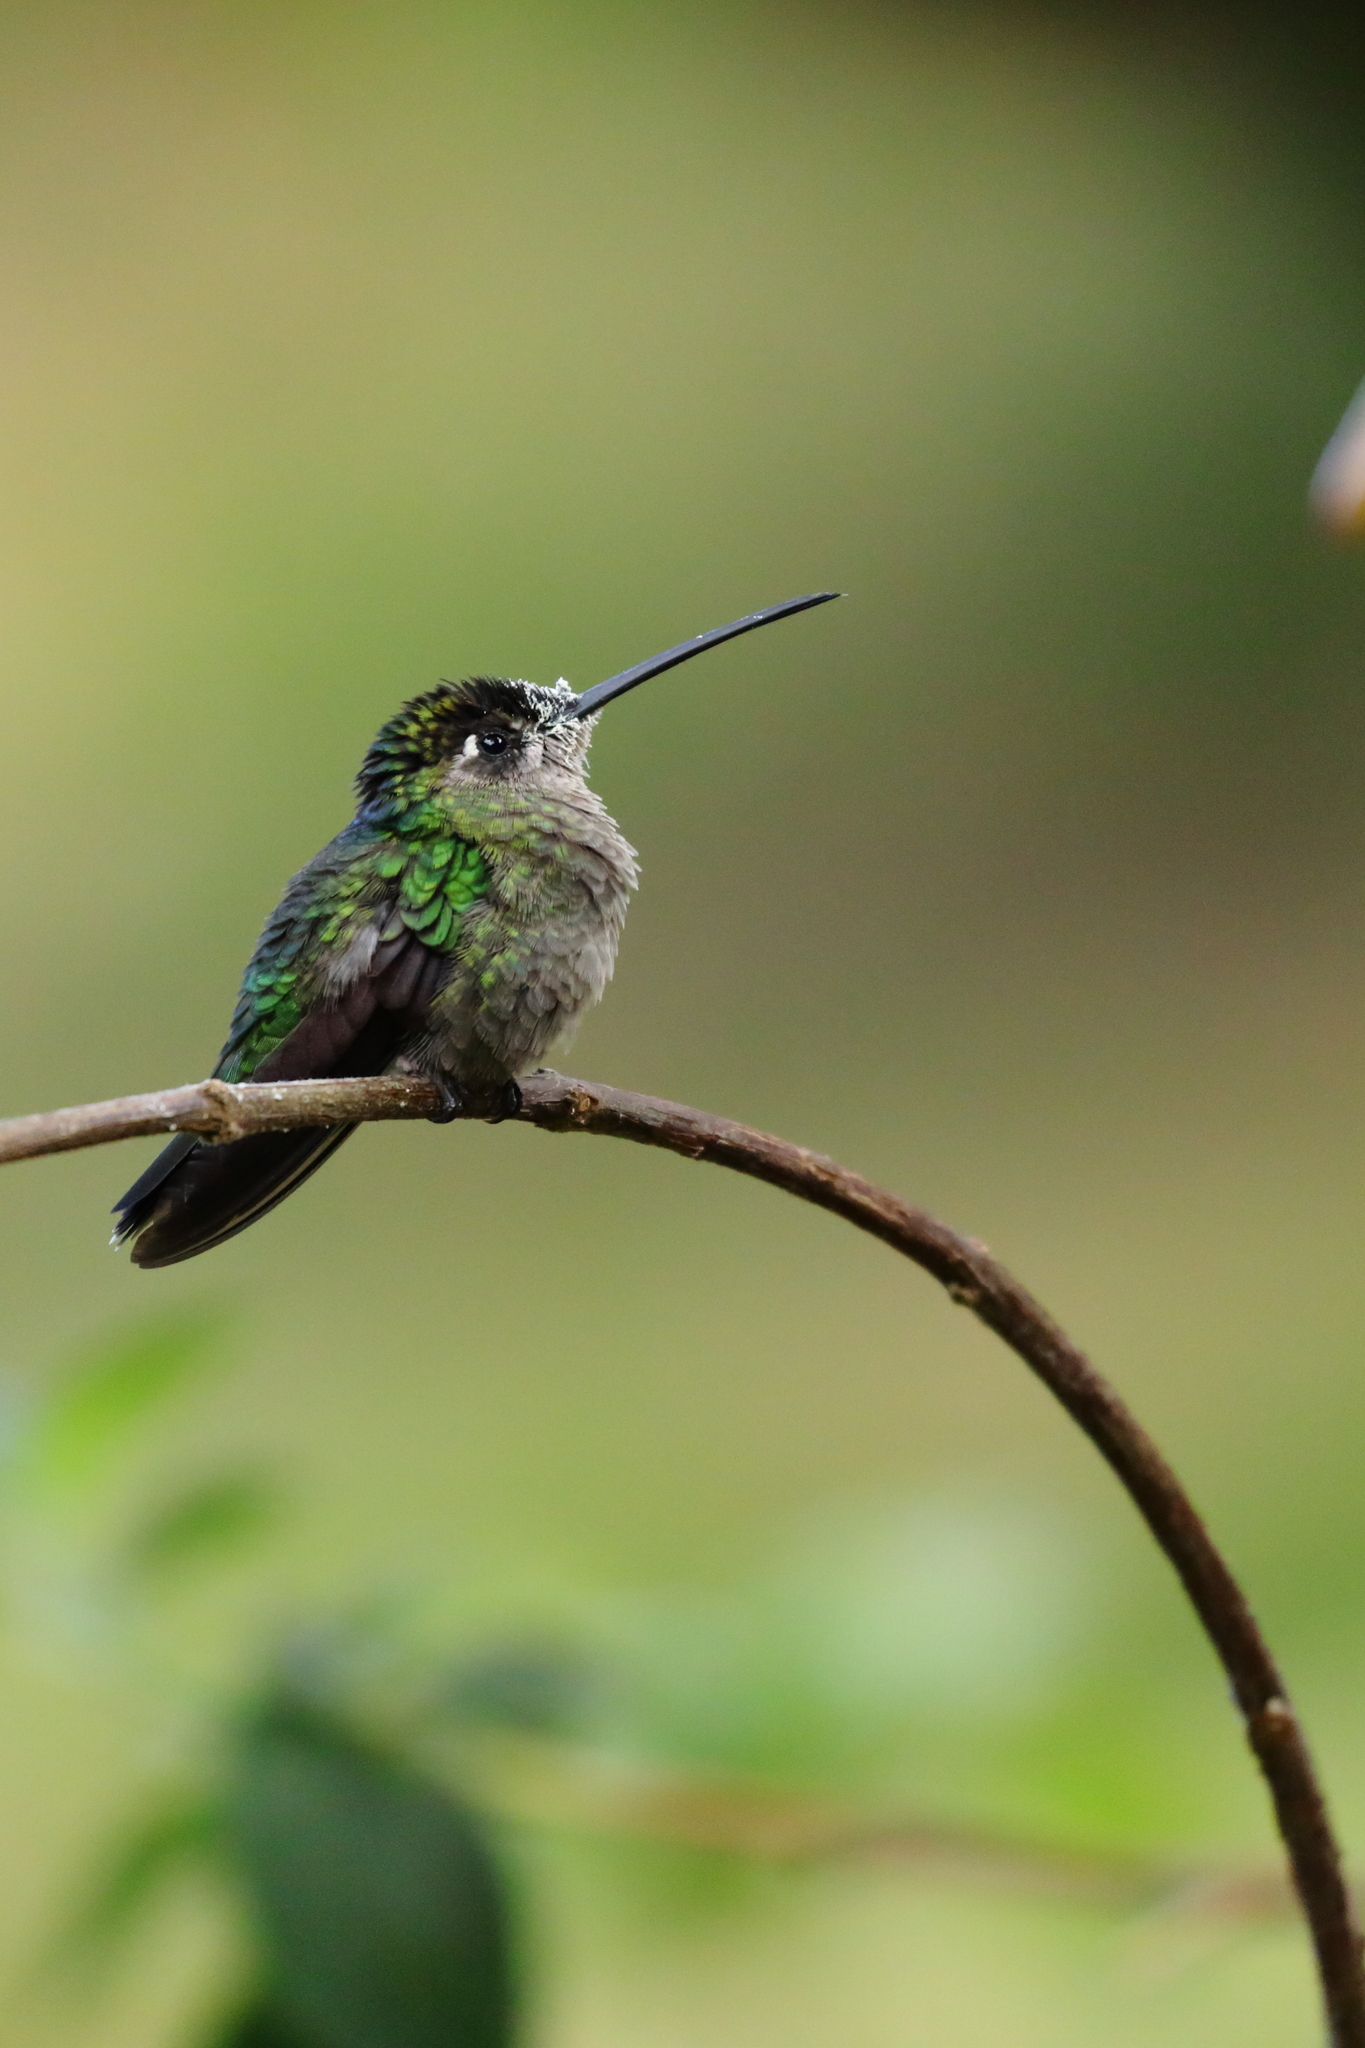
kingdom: Animalia
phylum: Chordata
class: Aves
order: Apodiformes
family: Trochilidae
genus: Eugenes
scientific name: Eugenes spectabilis
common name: Talamanca hummingbird
